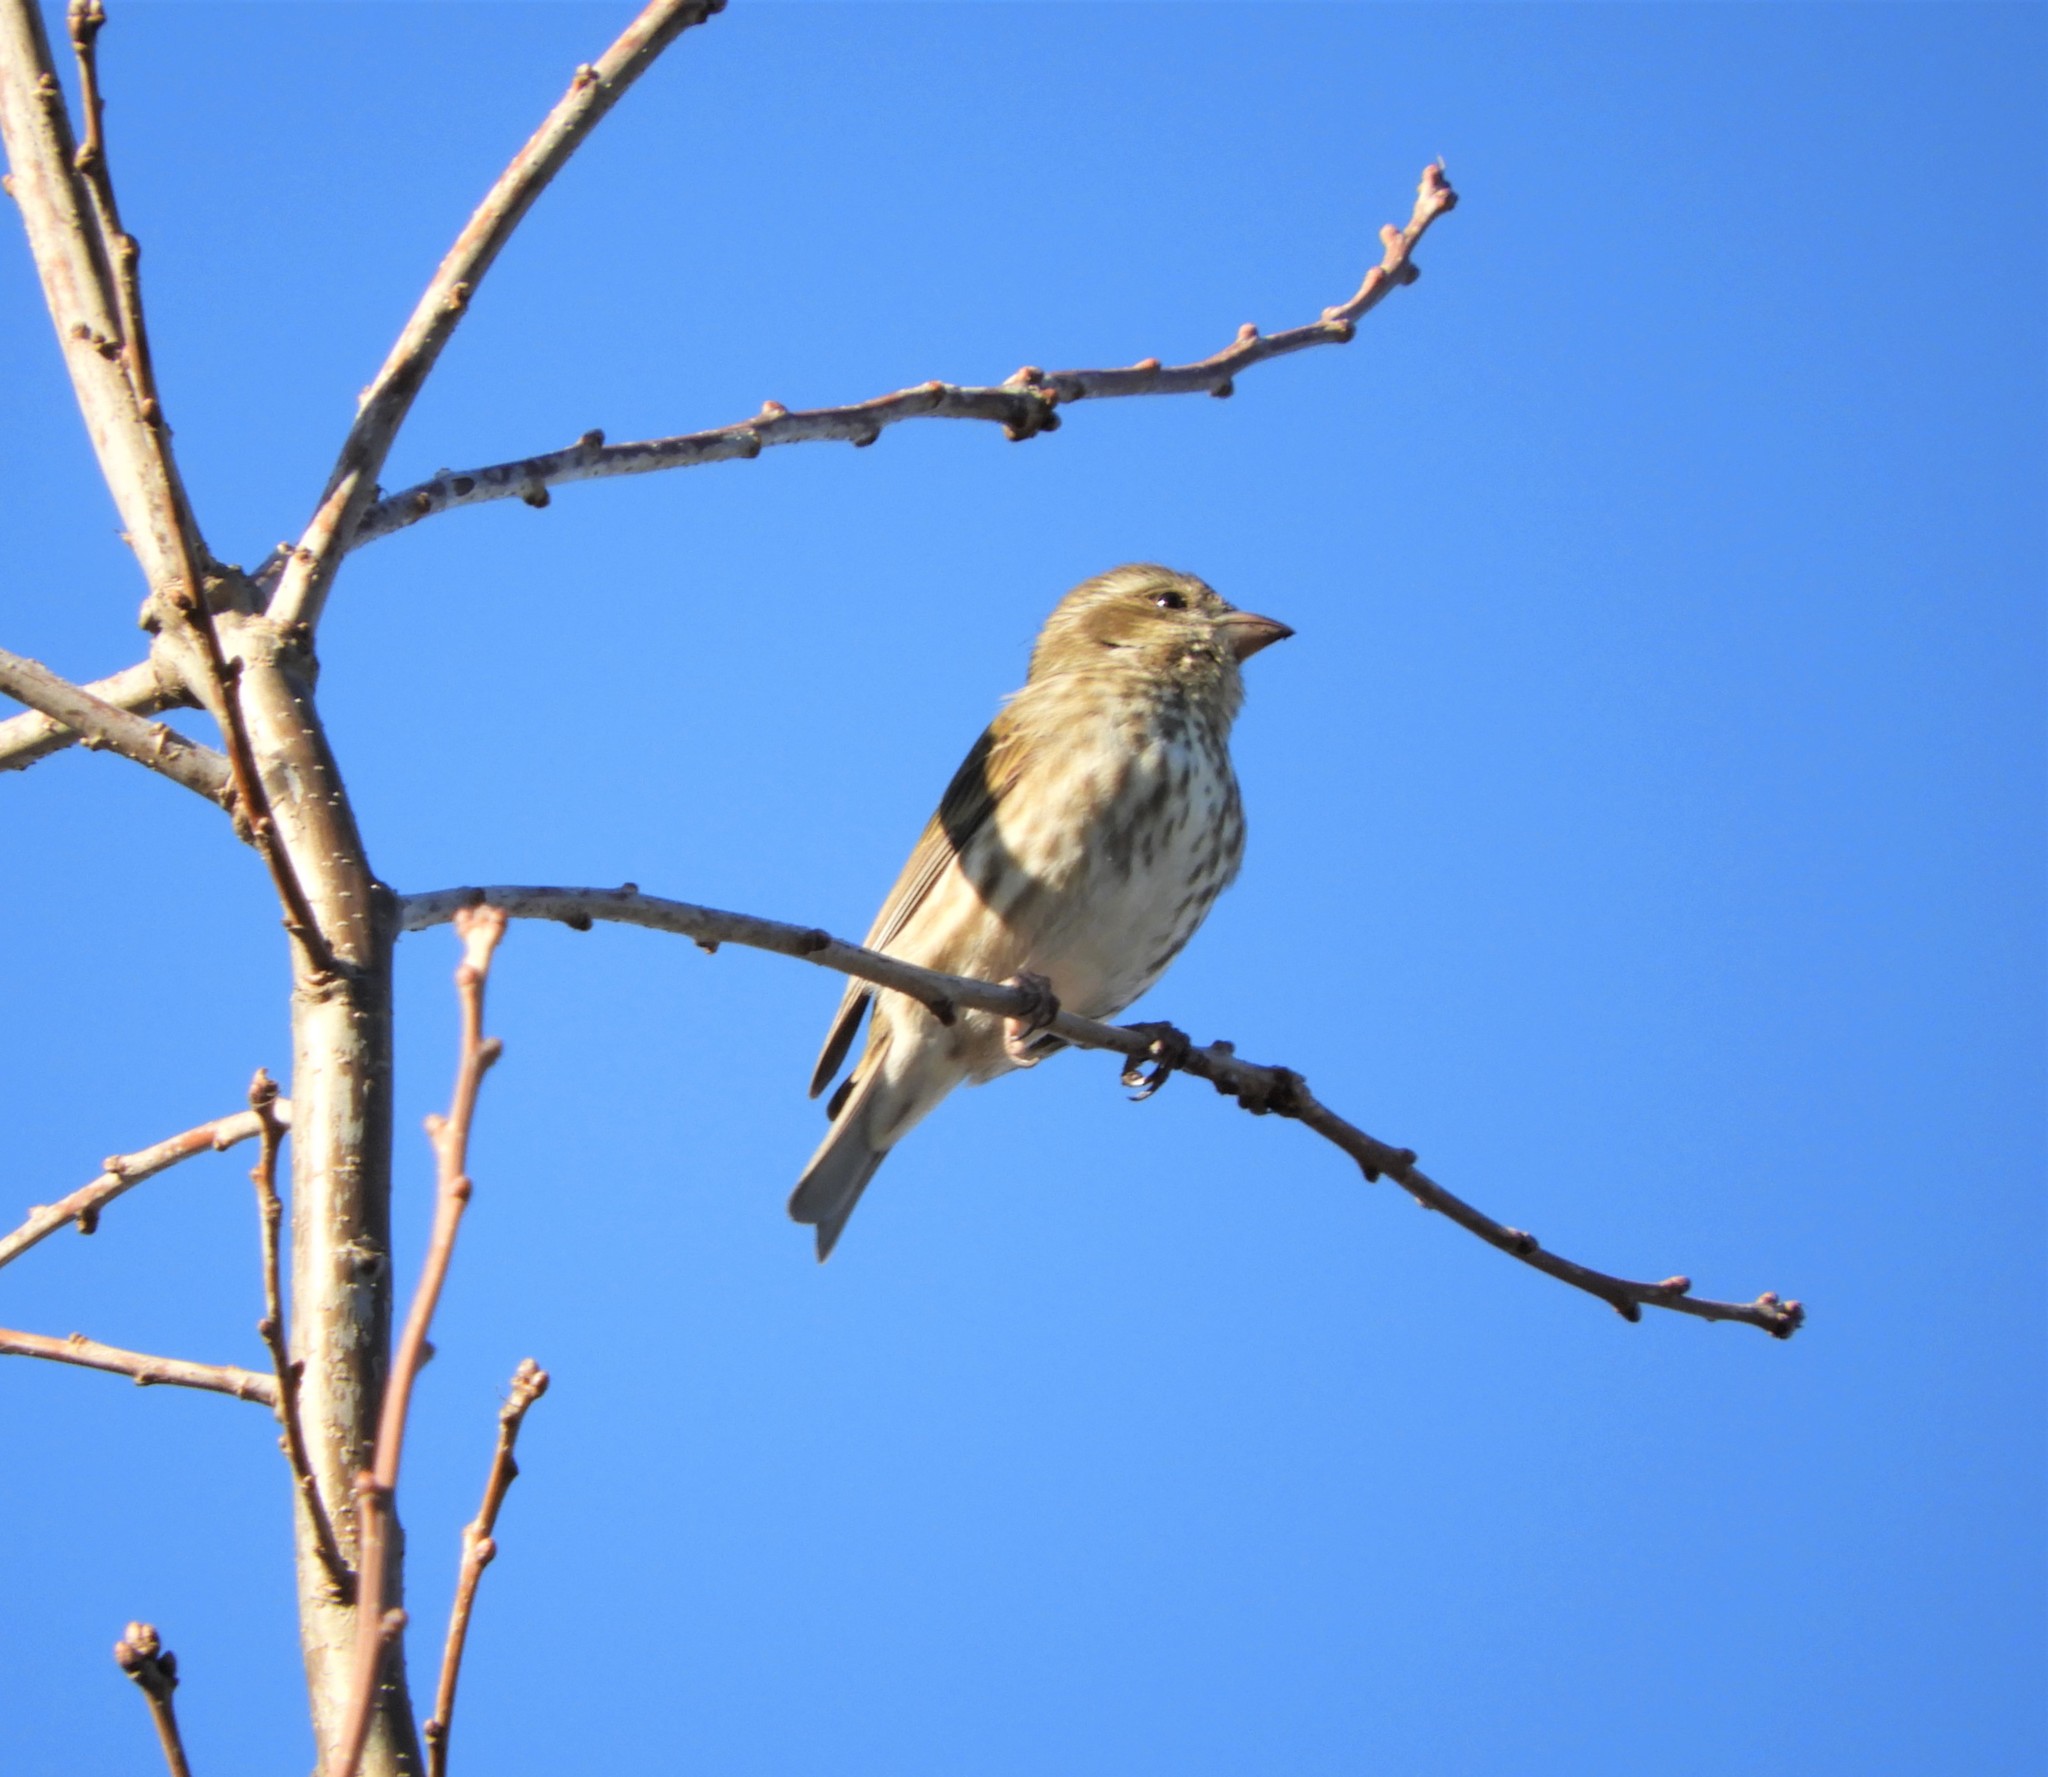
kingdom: Animalia
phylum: Chordata
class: Aves
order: Passeriformes
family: Fringillidae
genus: Haemorhous
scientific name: Haemorhous purpureus
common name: Purple finch
